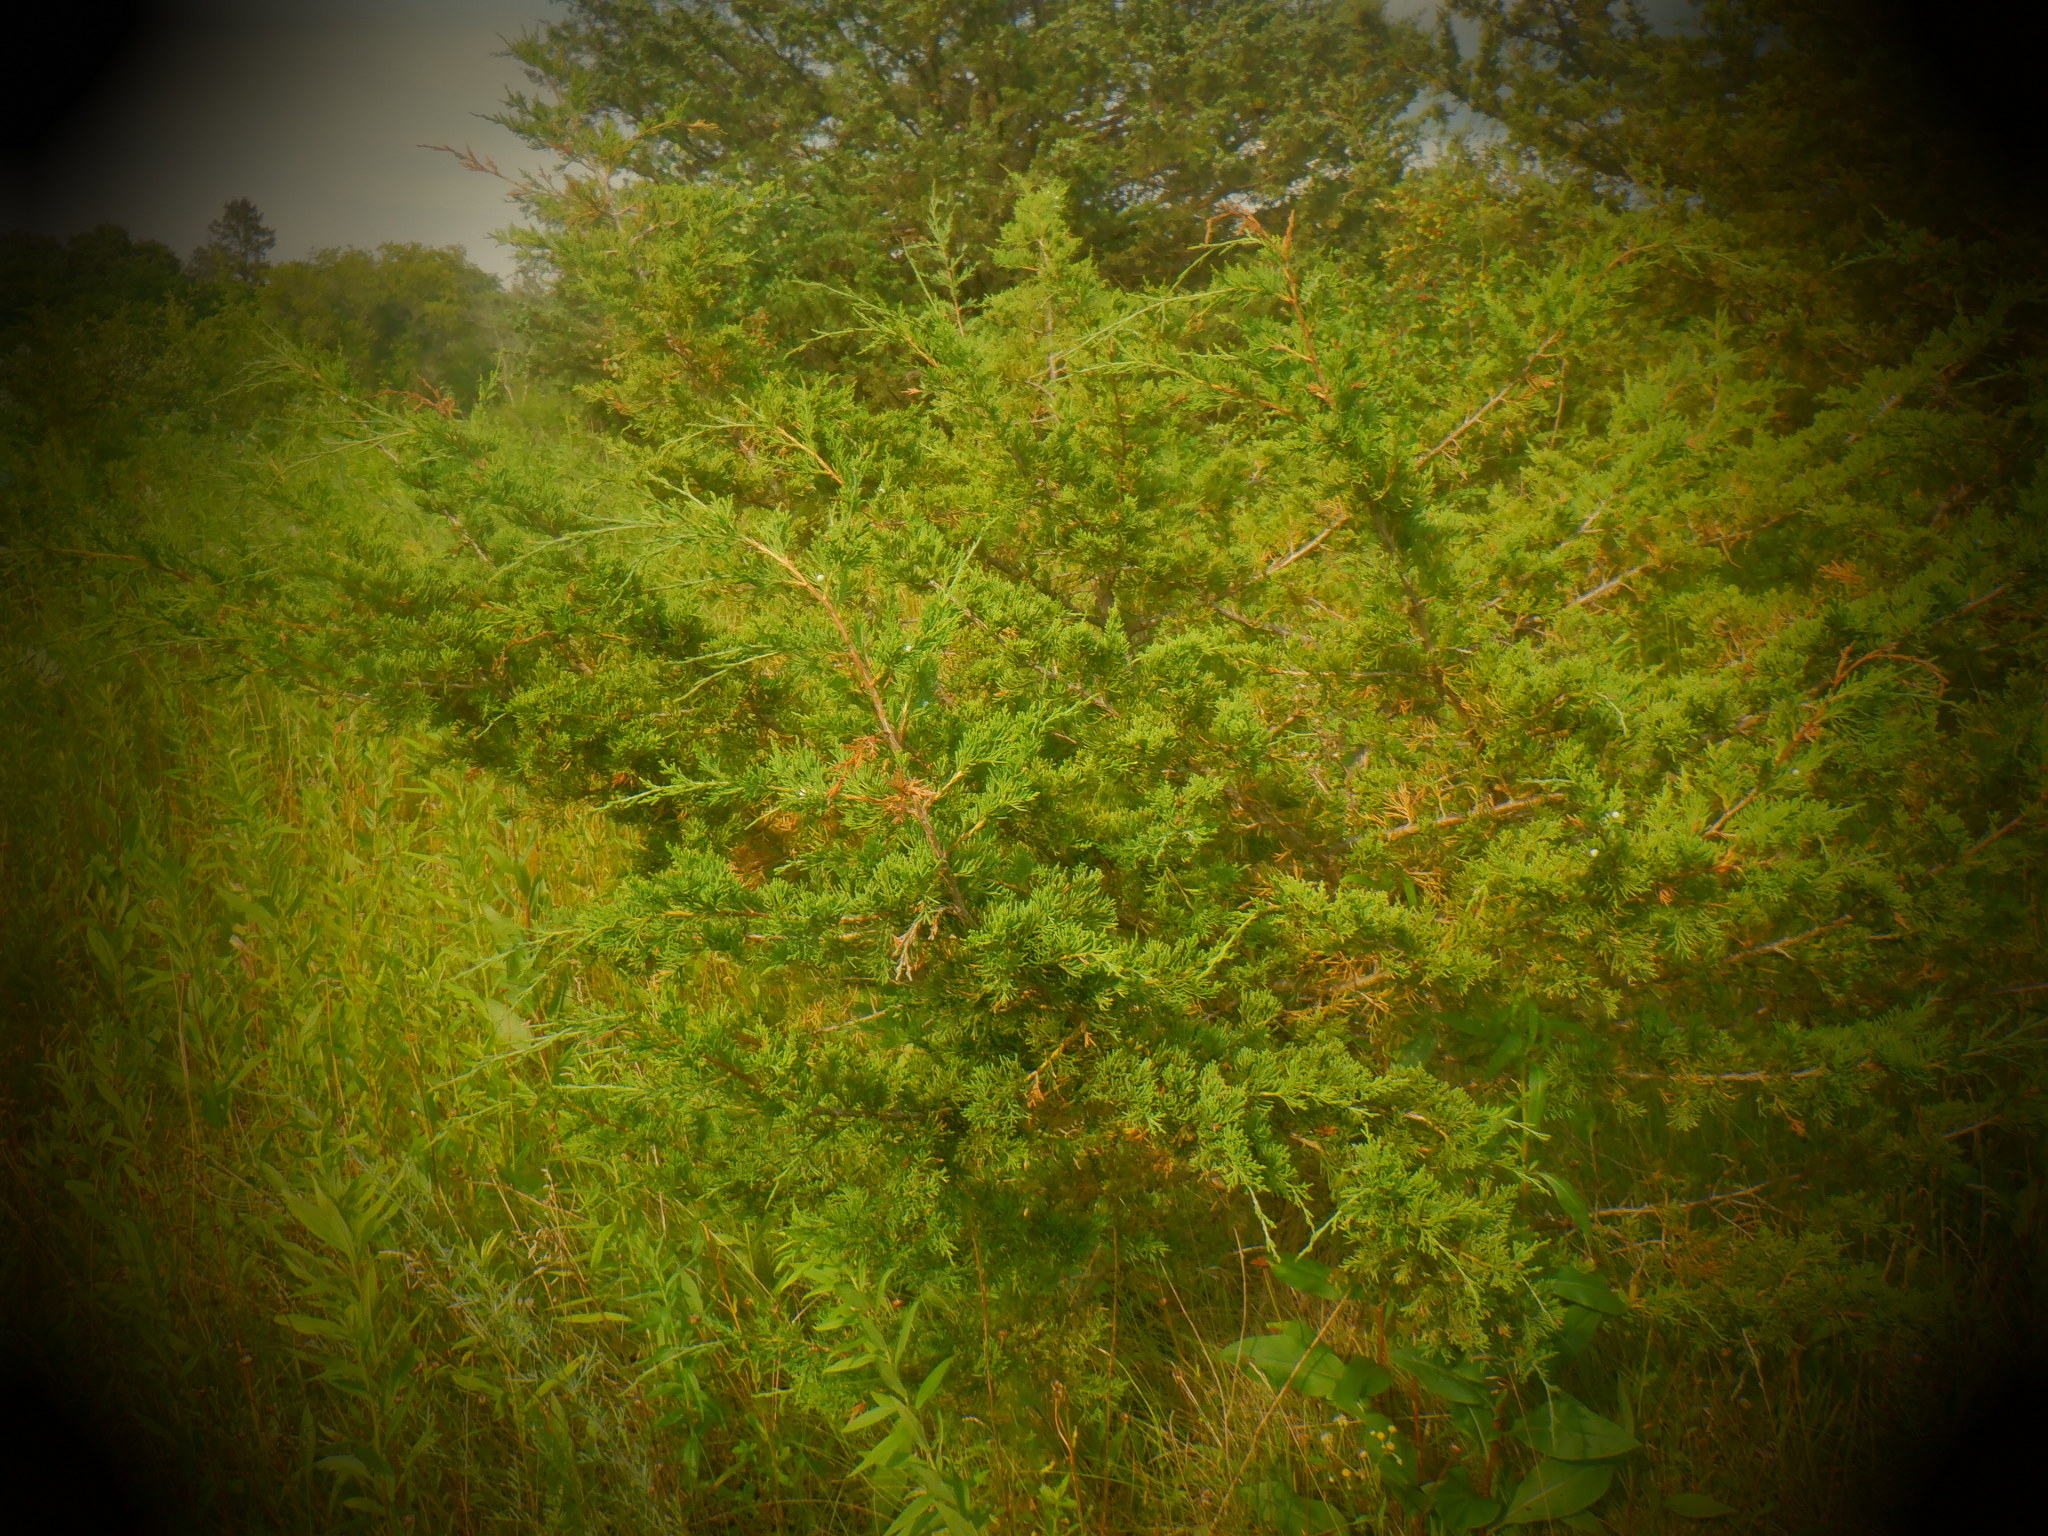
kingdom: Plantae
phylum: Tracheophyta
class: Pinopsida
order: Pinales
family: Cupressaceae
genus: Juniperus
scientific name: Juniperus virginiana
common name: Red juniper
